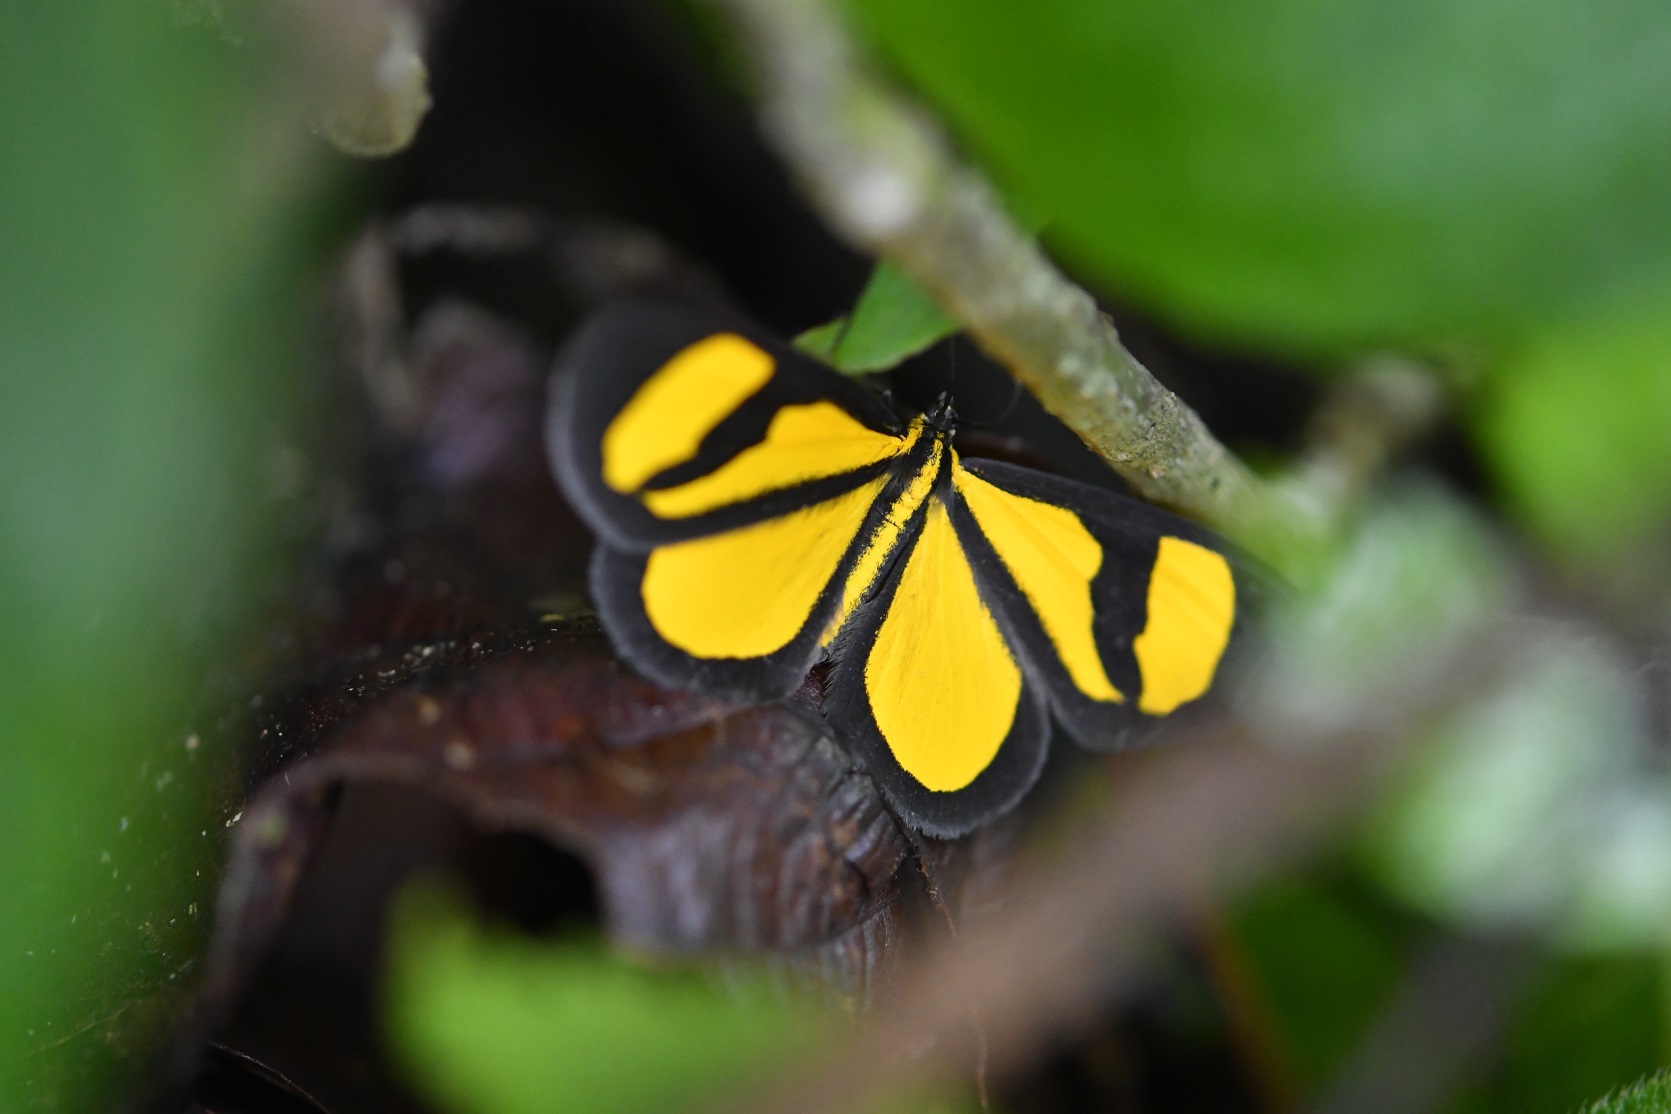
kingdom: Animalia
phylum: Arthropoda
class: Insecta
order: Lepidoptera
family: Geometridae
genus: Smicropus
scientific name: Smicropus laeta
